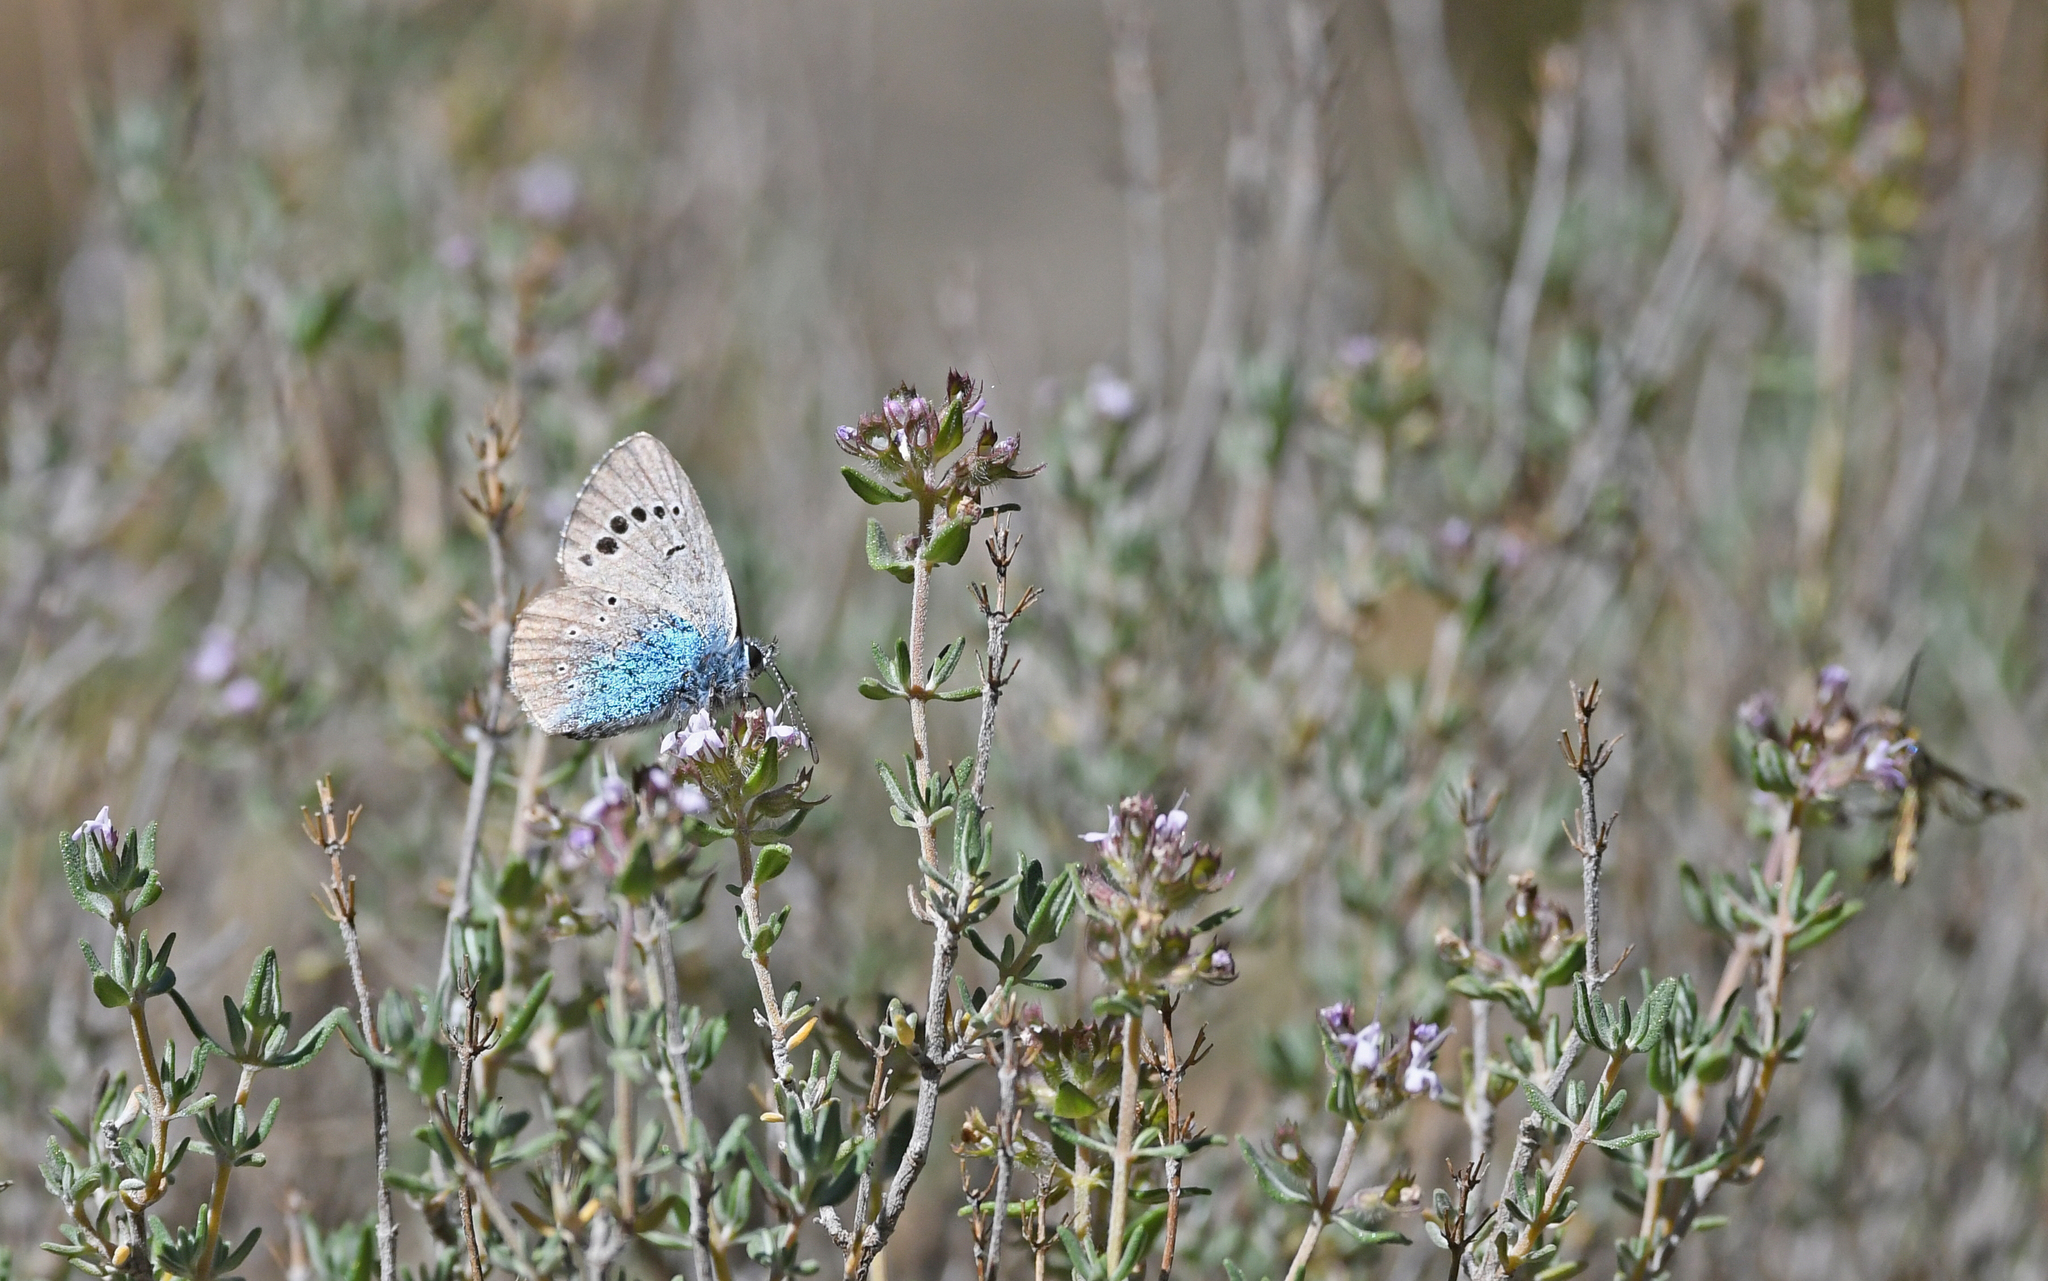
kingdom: Animalia
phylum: Arthropoda
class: Insecta
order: Lepidoptera
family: Lycaenidae
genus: Glaucopsyche
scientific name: Glaucopsyche alexis
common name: Green-underside blue
